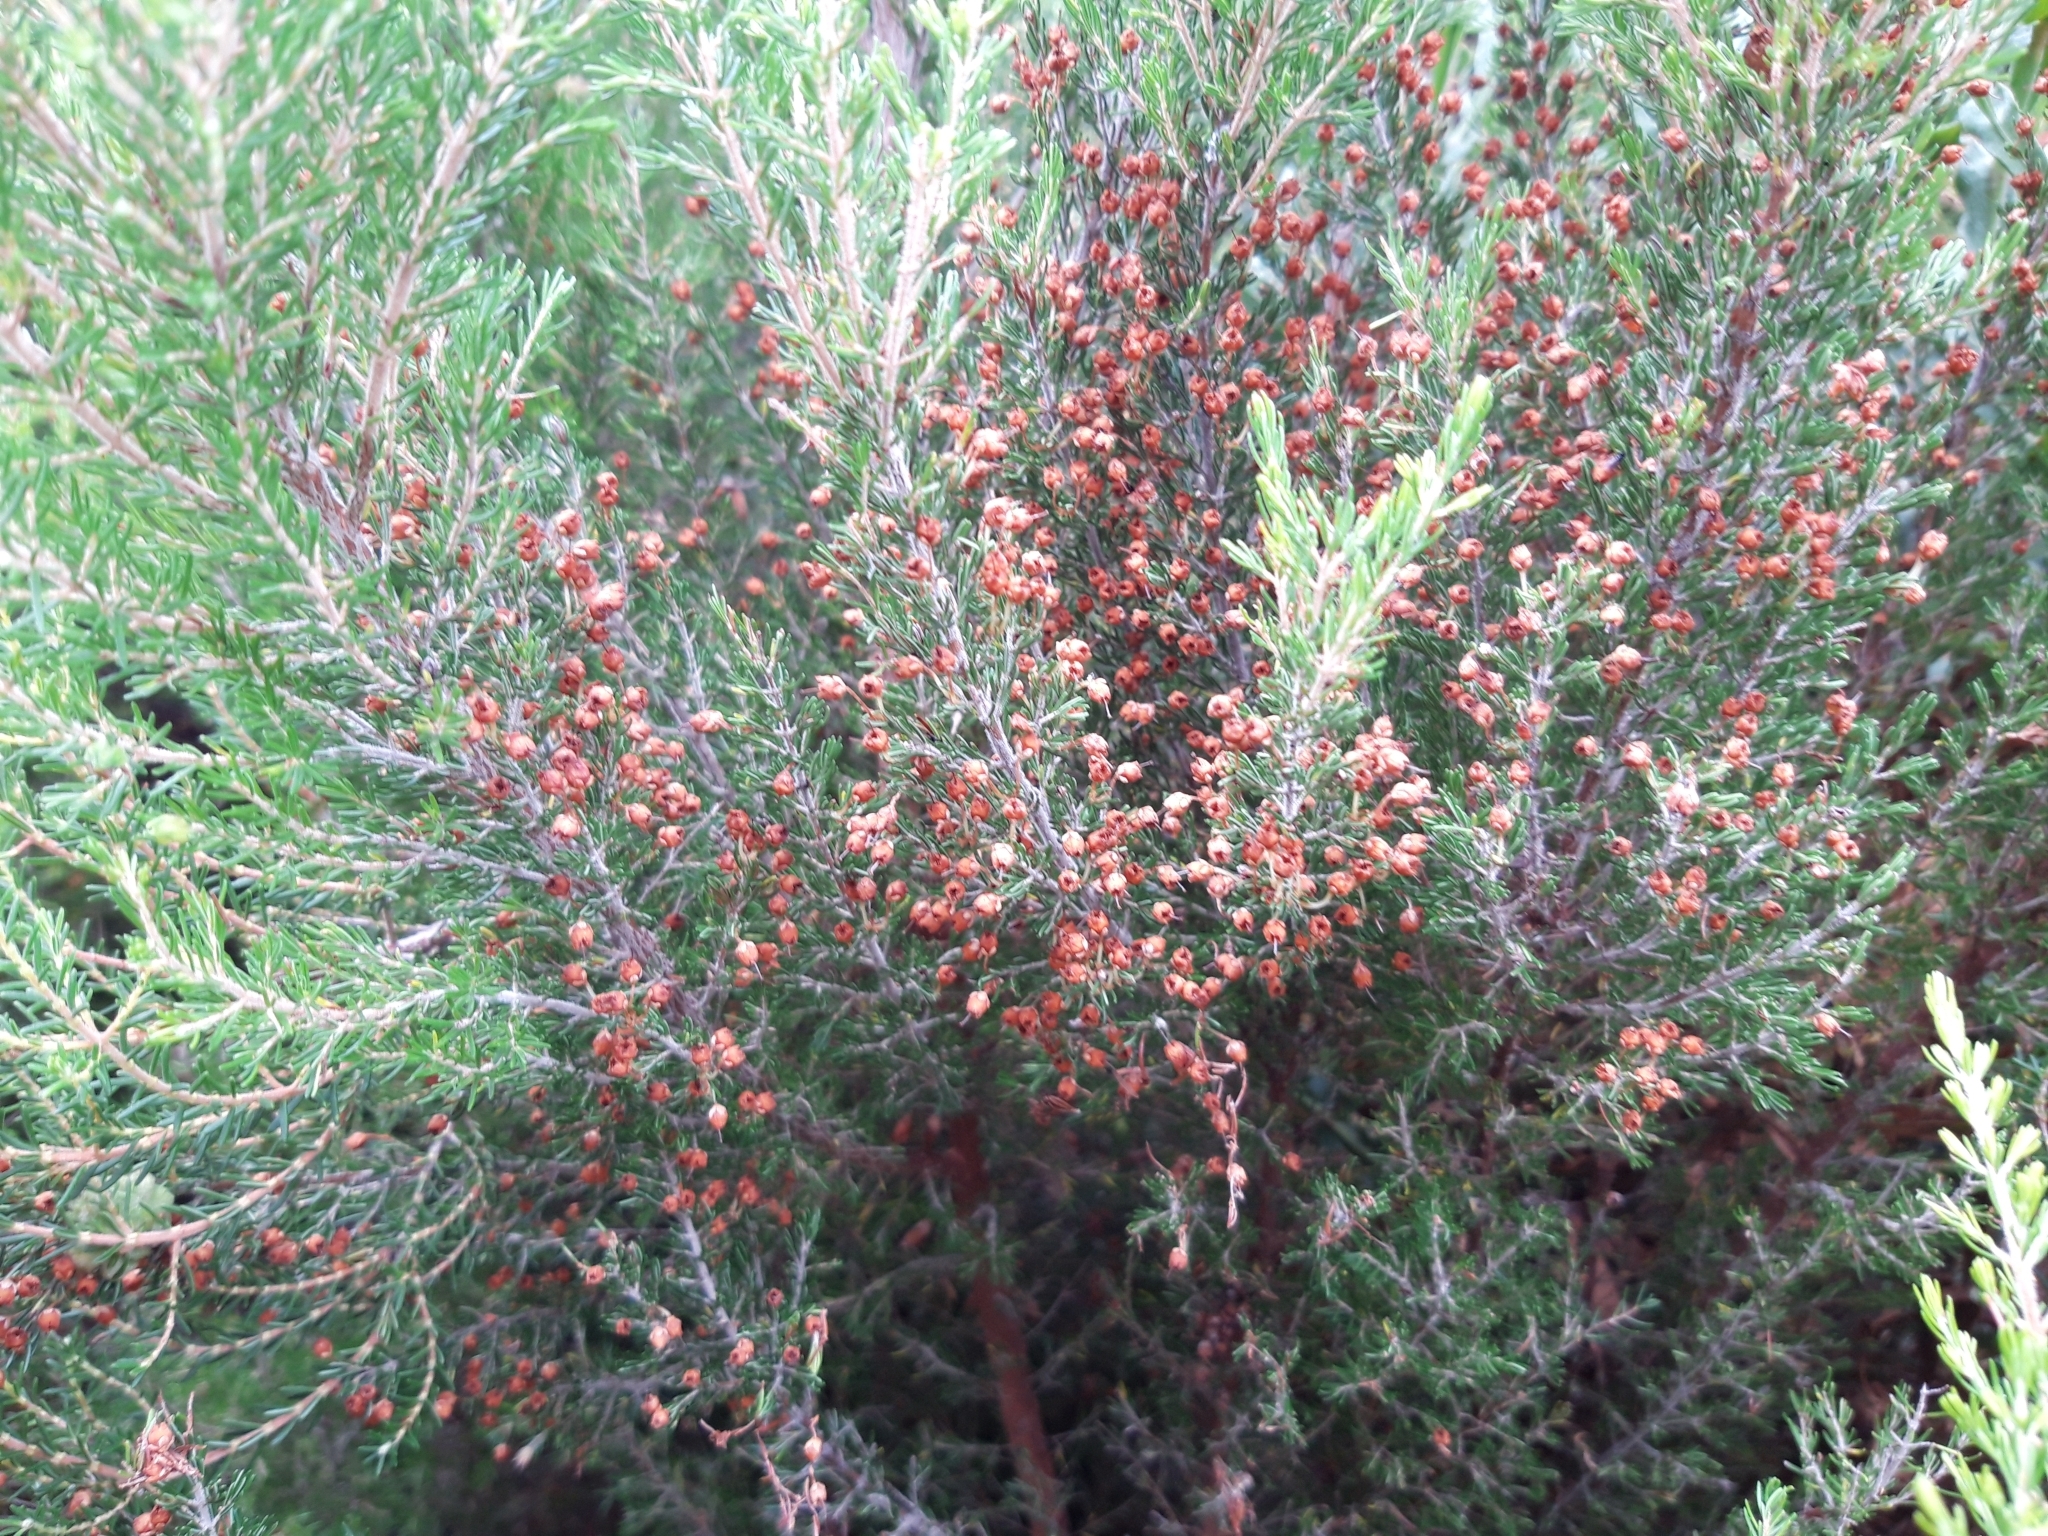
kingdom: Plantae
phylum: Tracheophyta
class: Magnoliopsida
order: Ericales
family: Ericaceae
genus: Erica
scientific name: Erica arborea
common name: Tree heath
